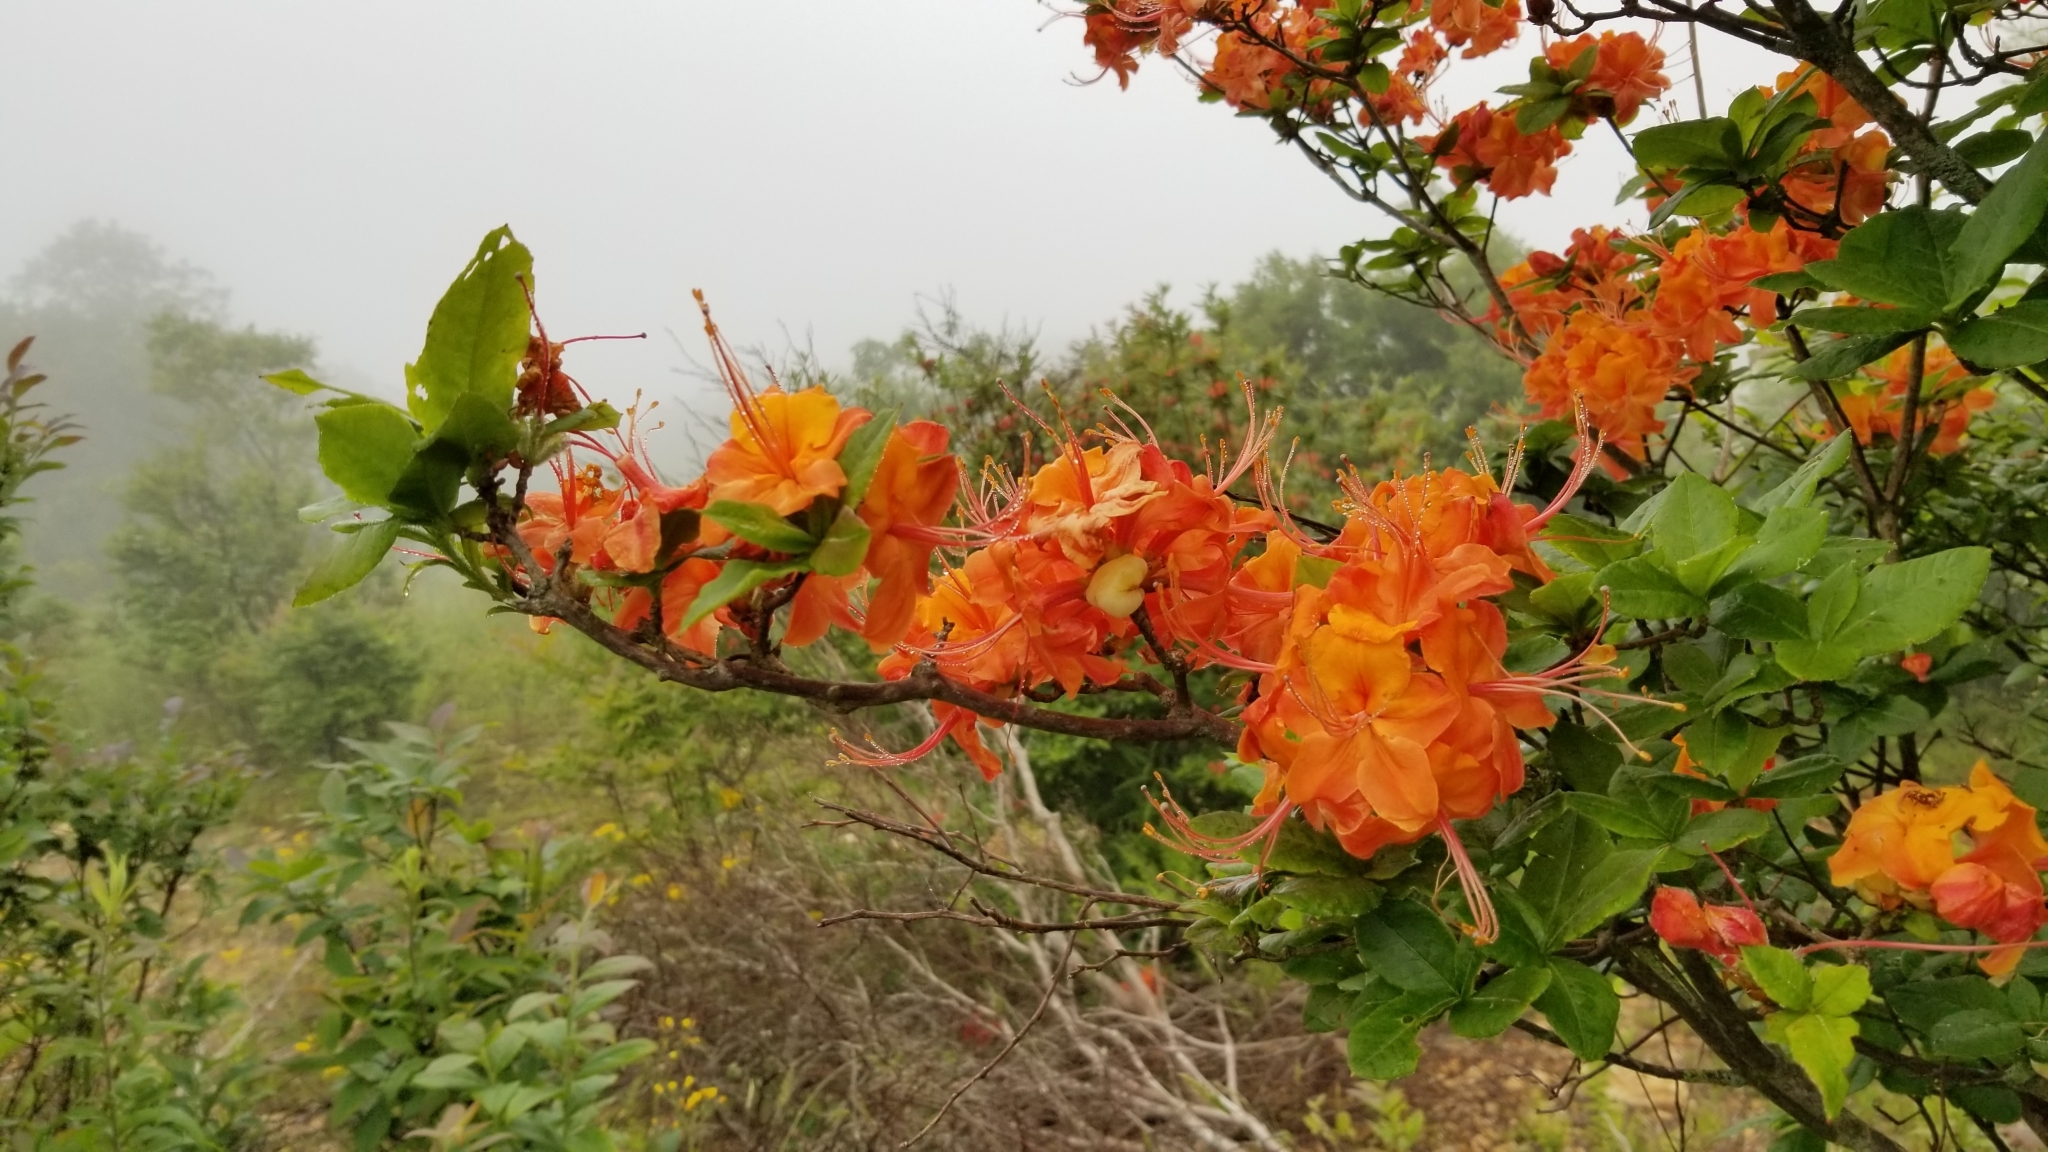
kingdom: Plantae
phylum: Tracheophyta
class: Magnoliopsida
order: Ericales
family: Ericaceae
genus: Rhododendron
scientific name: Rhododendron calendulaceum
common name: Flame azalea
